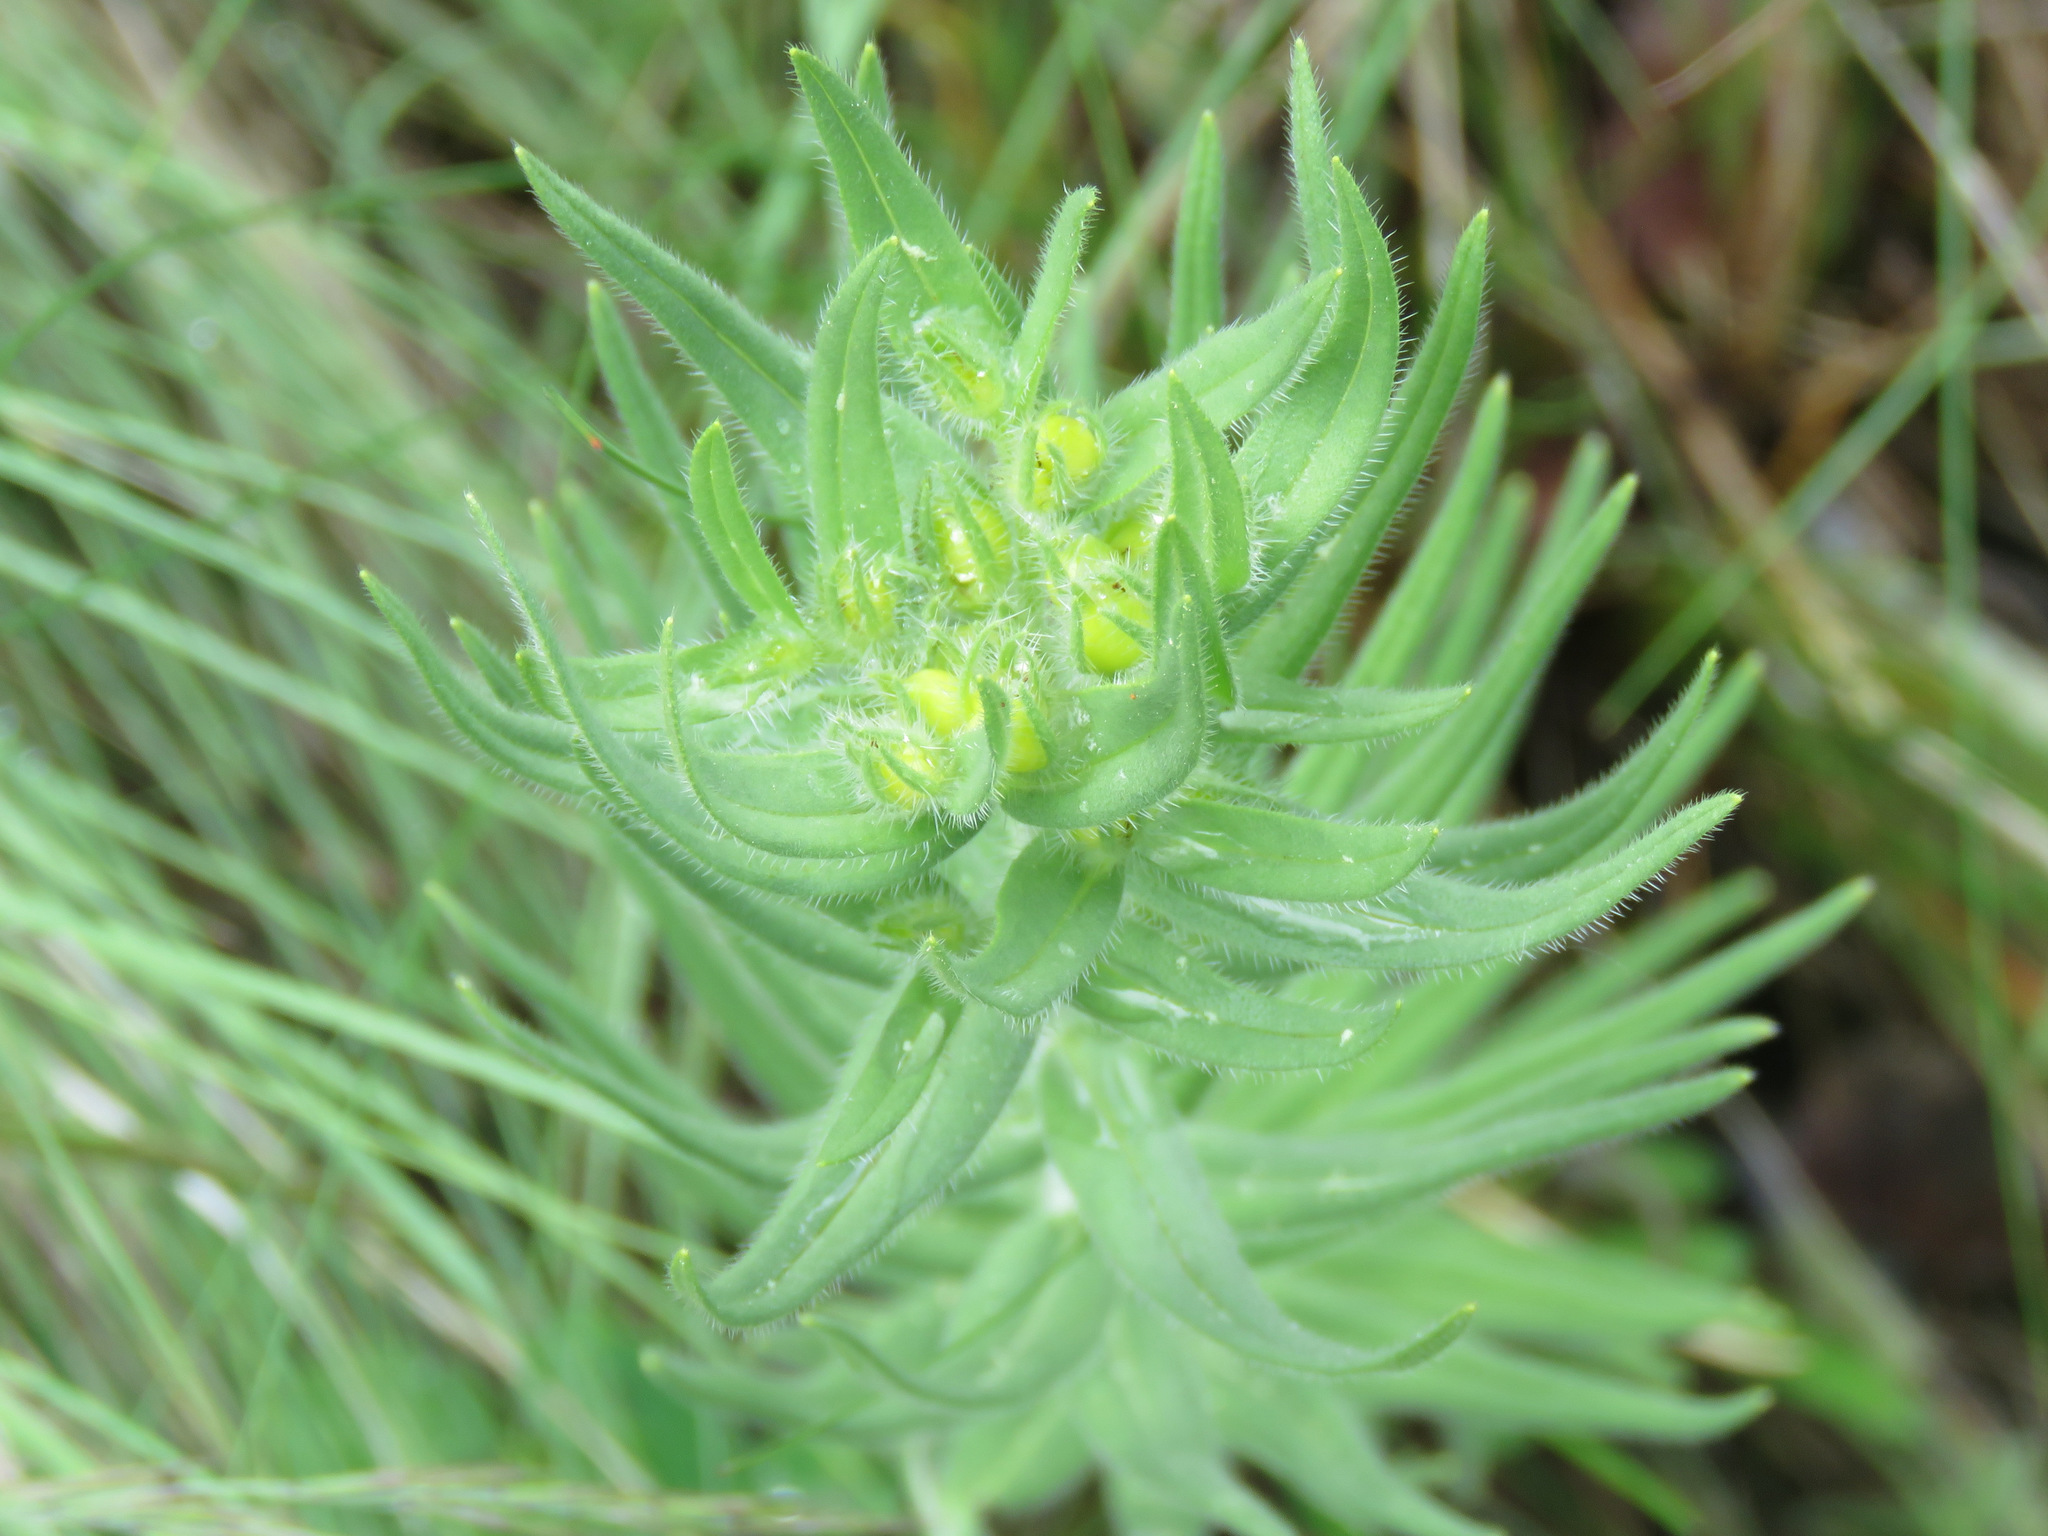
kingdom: Plantae
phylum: Tracheophyta
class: Magnoliopsida
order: Boraginales
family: Boraginaceae
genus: Lithospermum
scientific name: Lithospermum ruderale
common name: Western gromwell
